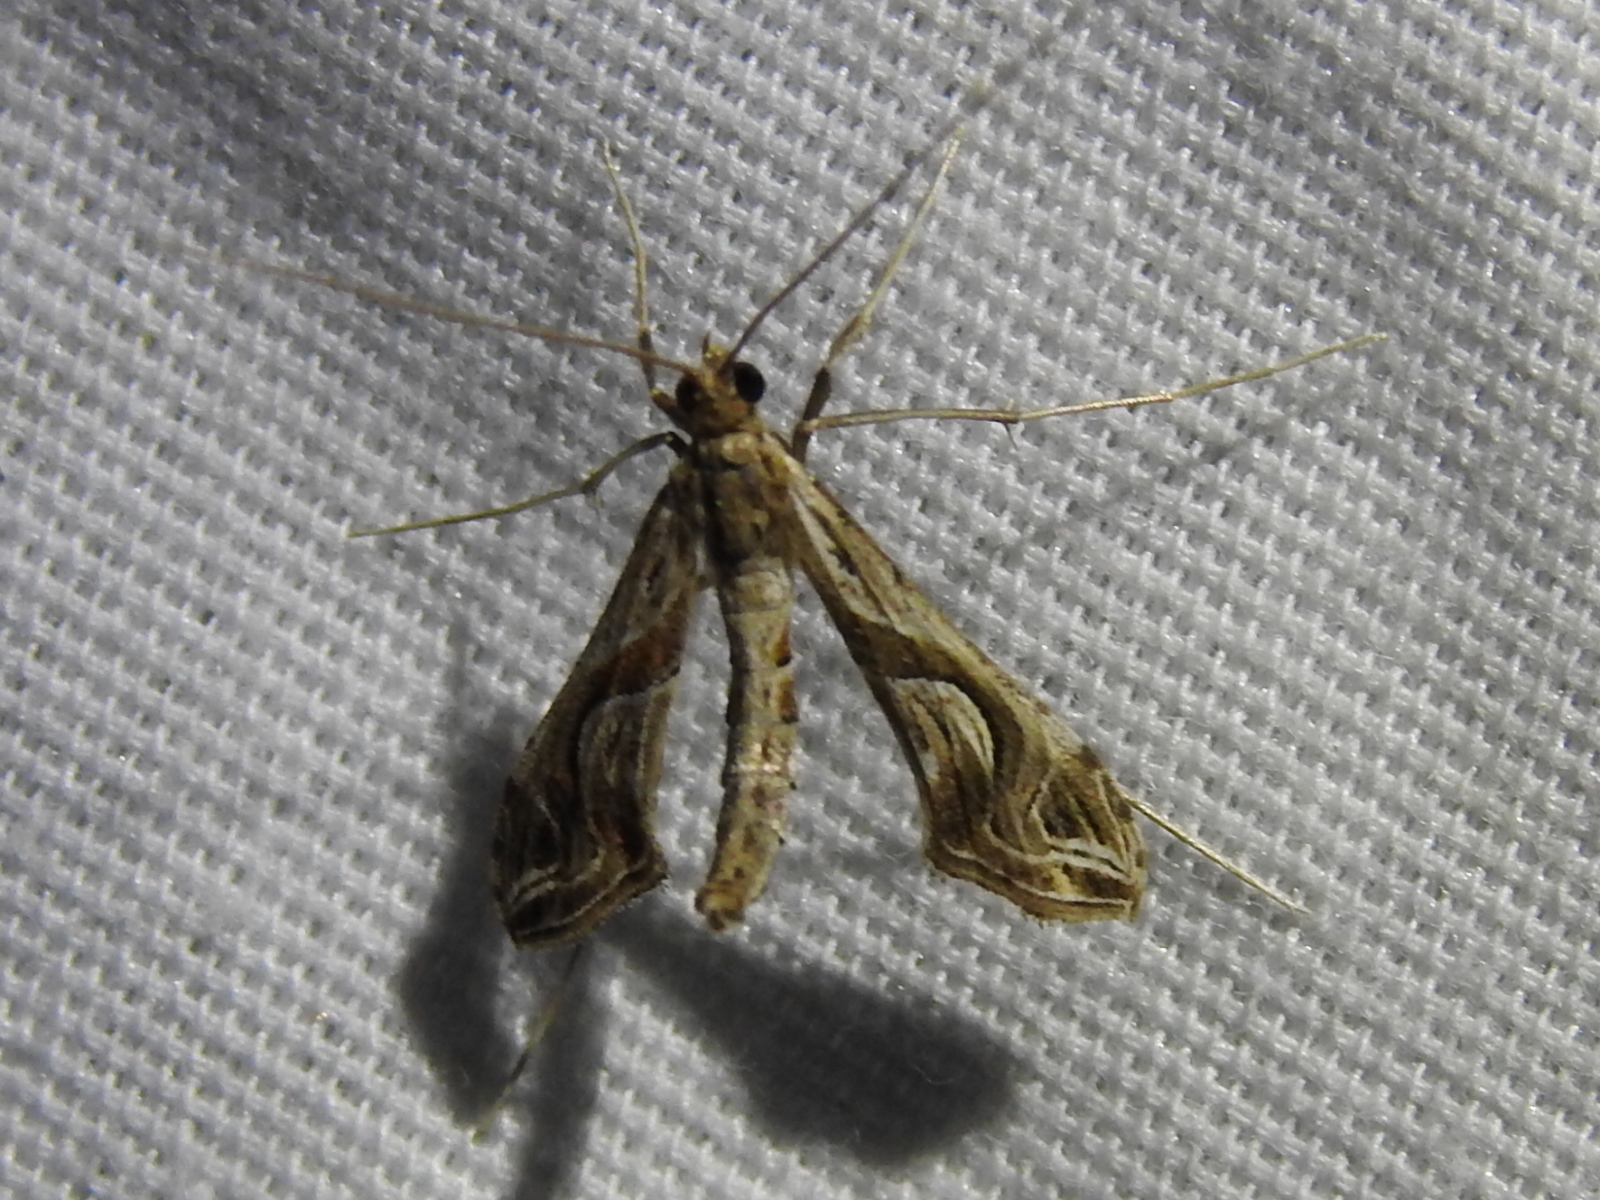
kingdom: Animalia
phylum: Arthropoda
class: Insecta
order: Lepidoptera
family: Crambidae
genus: Lineodes
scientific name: Lineodes integra
